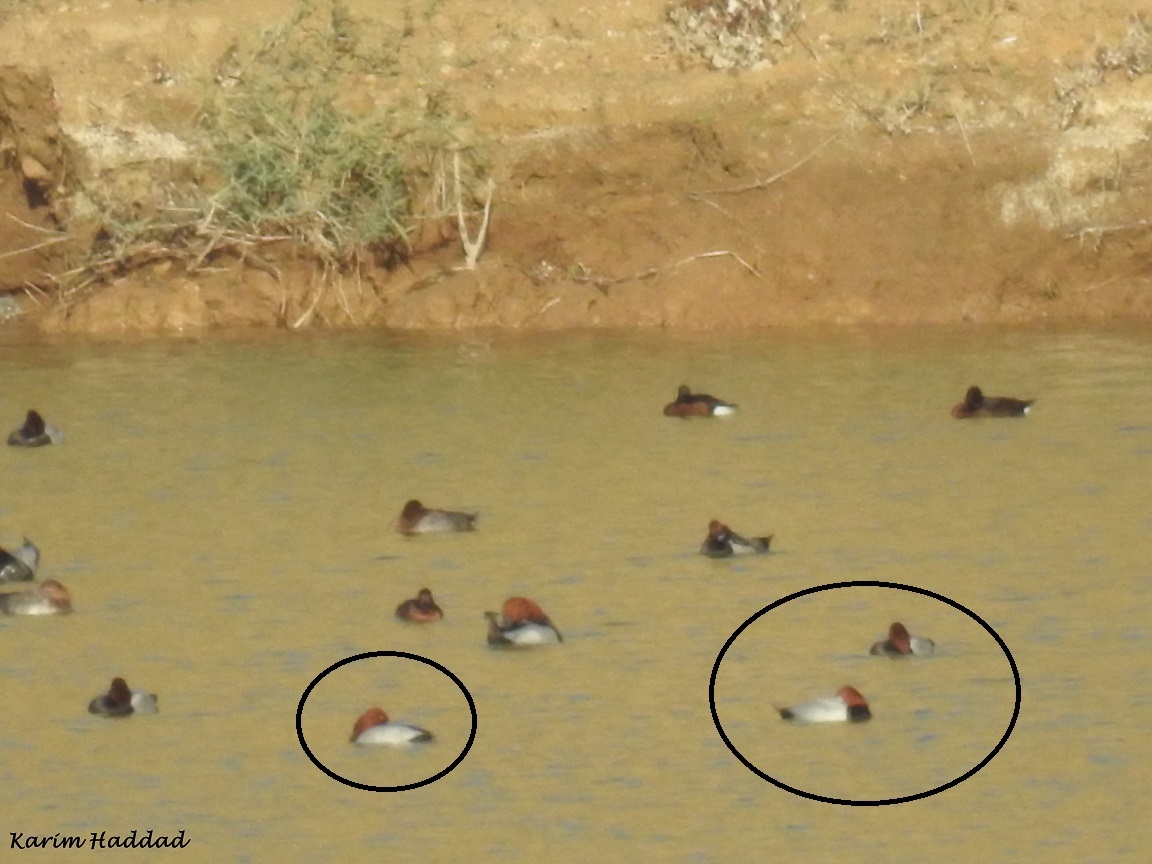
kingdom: Animalia
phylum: Chordata
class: Aves
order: Anseriformes
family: Anatidae
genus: Aythya
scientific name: Aythya ferina
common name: Common pochard
